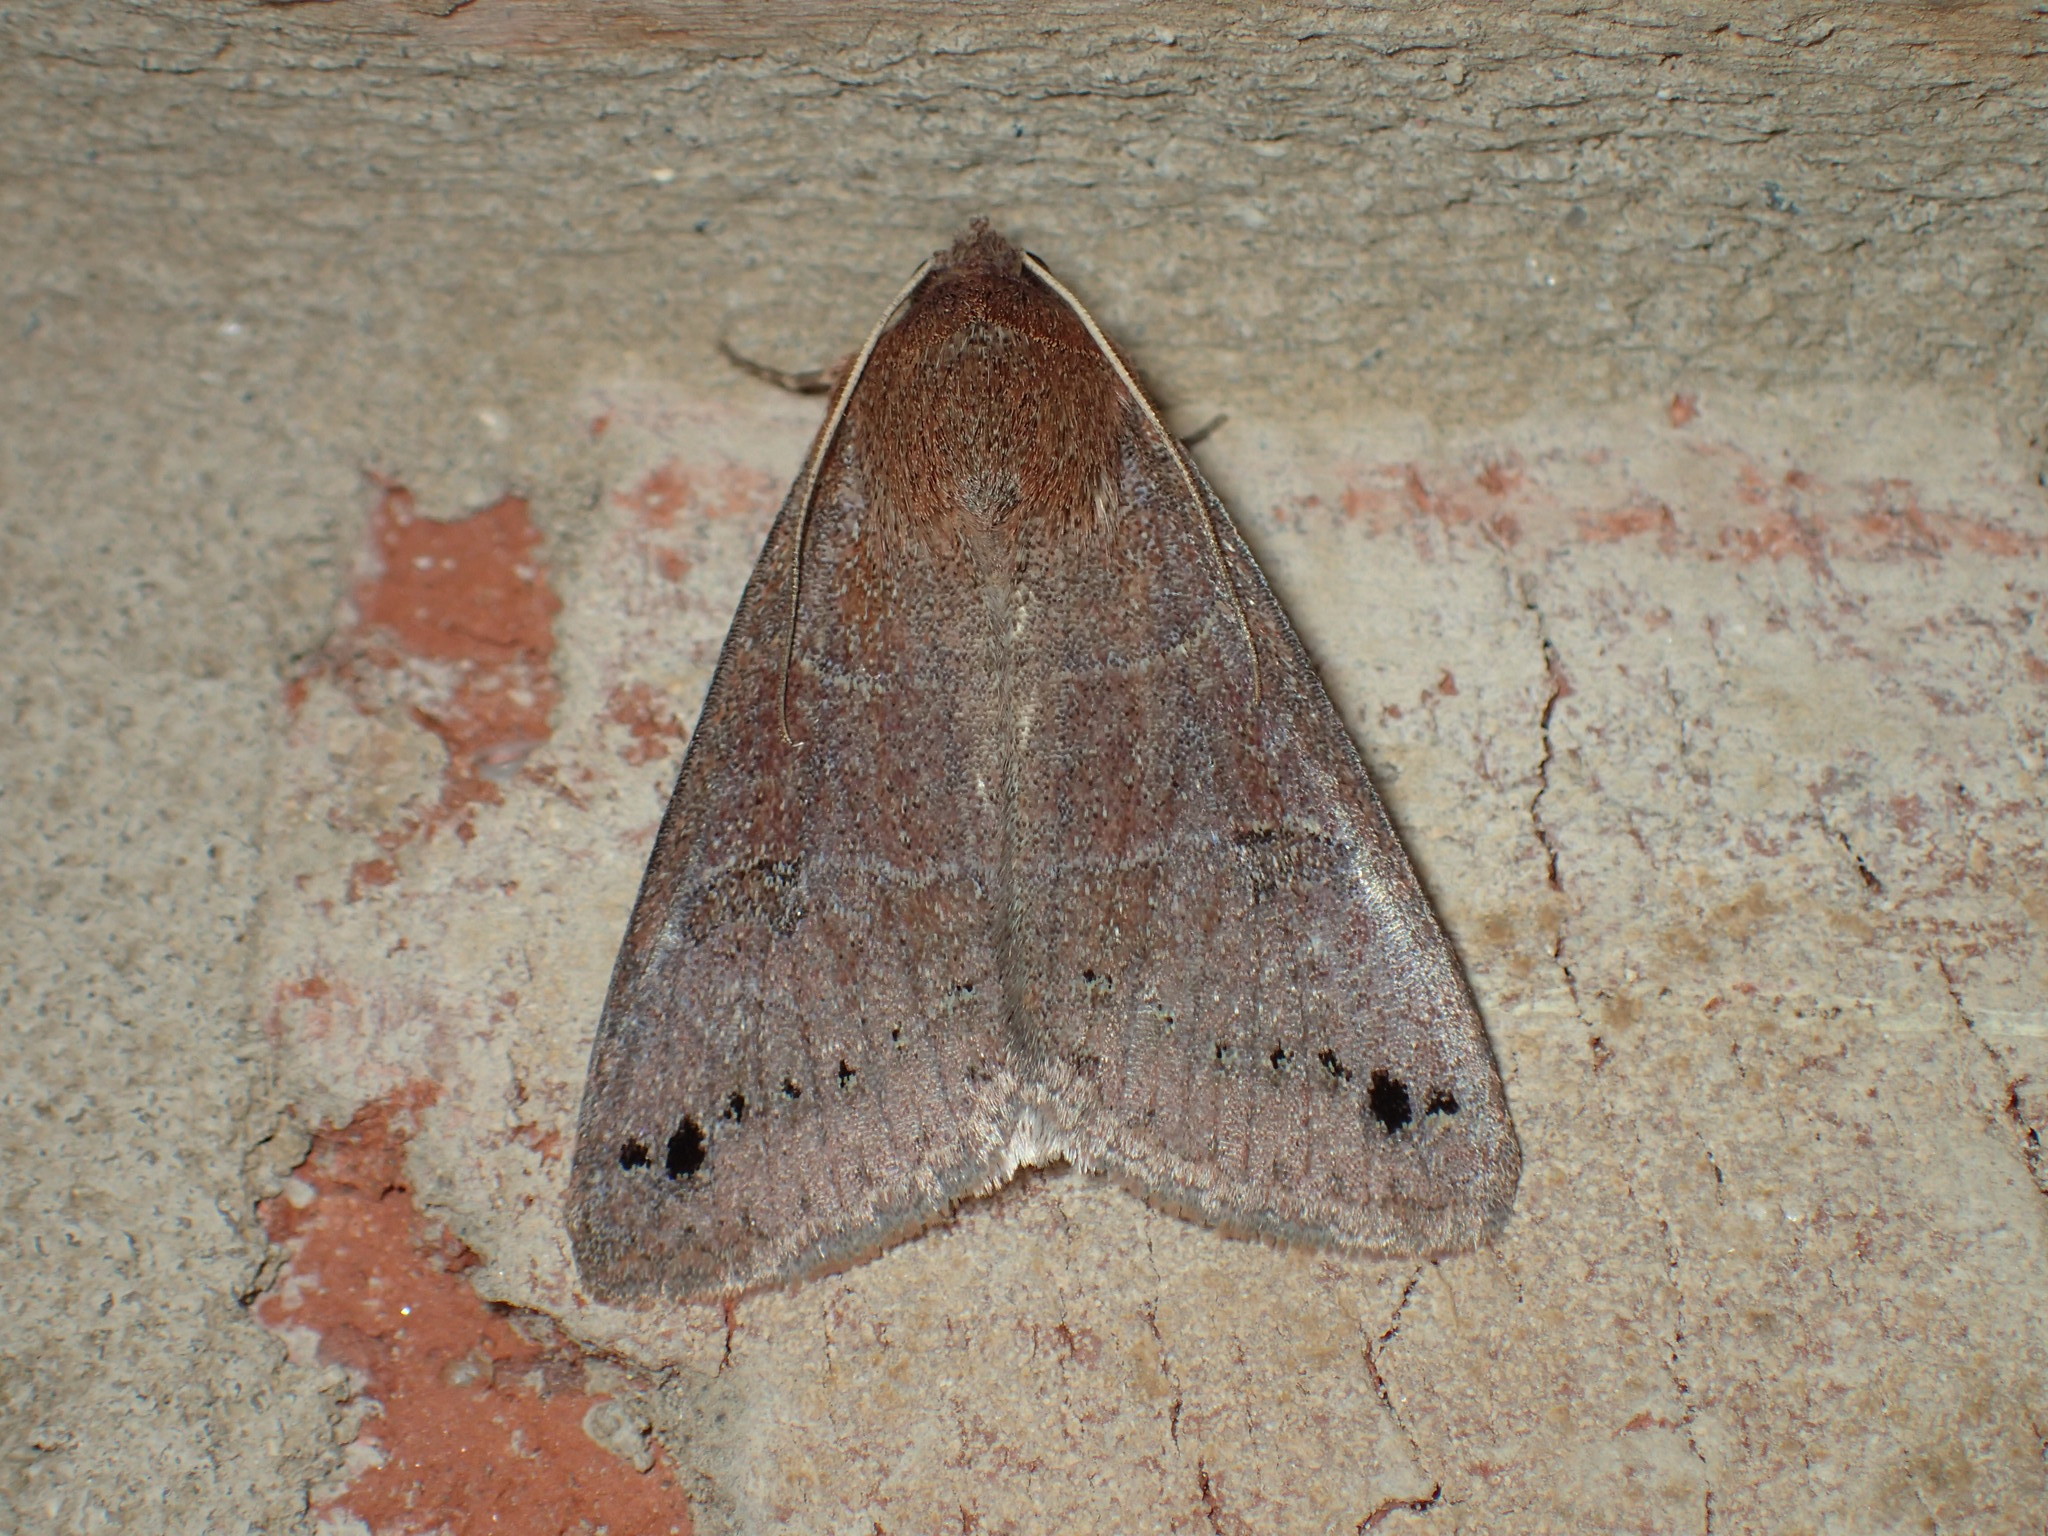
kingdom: Animalia
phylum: Arthropoda
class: Insecta
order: Lepidoptera
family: Erebidae
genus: Cissusa
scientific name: Cissusa spadix
